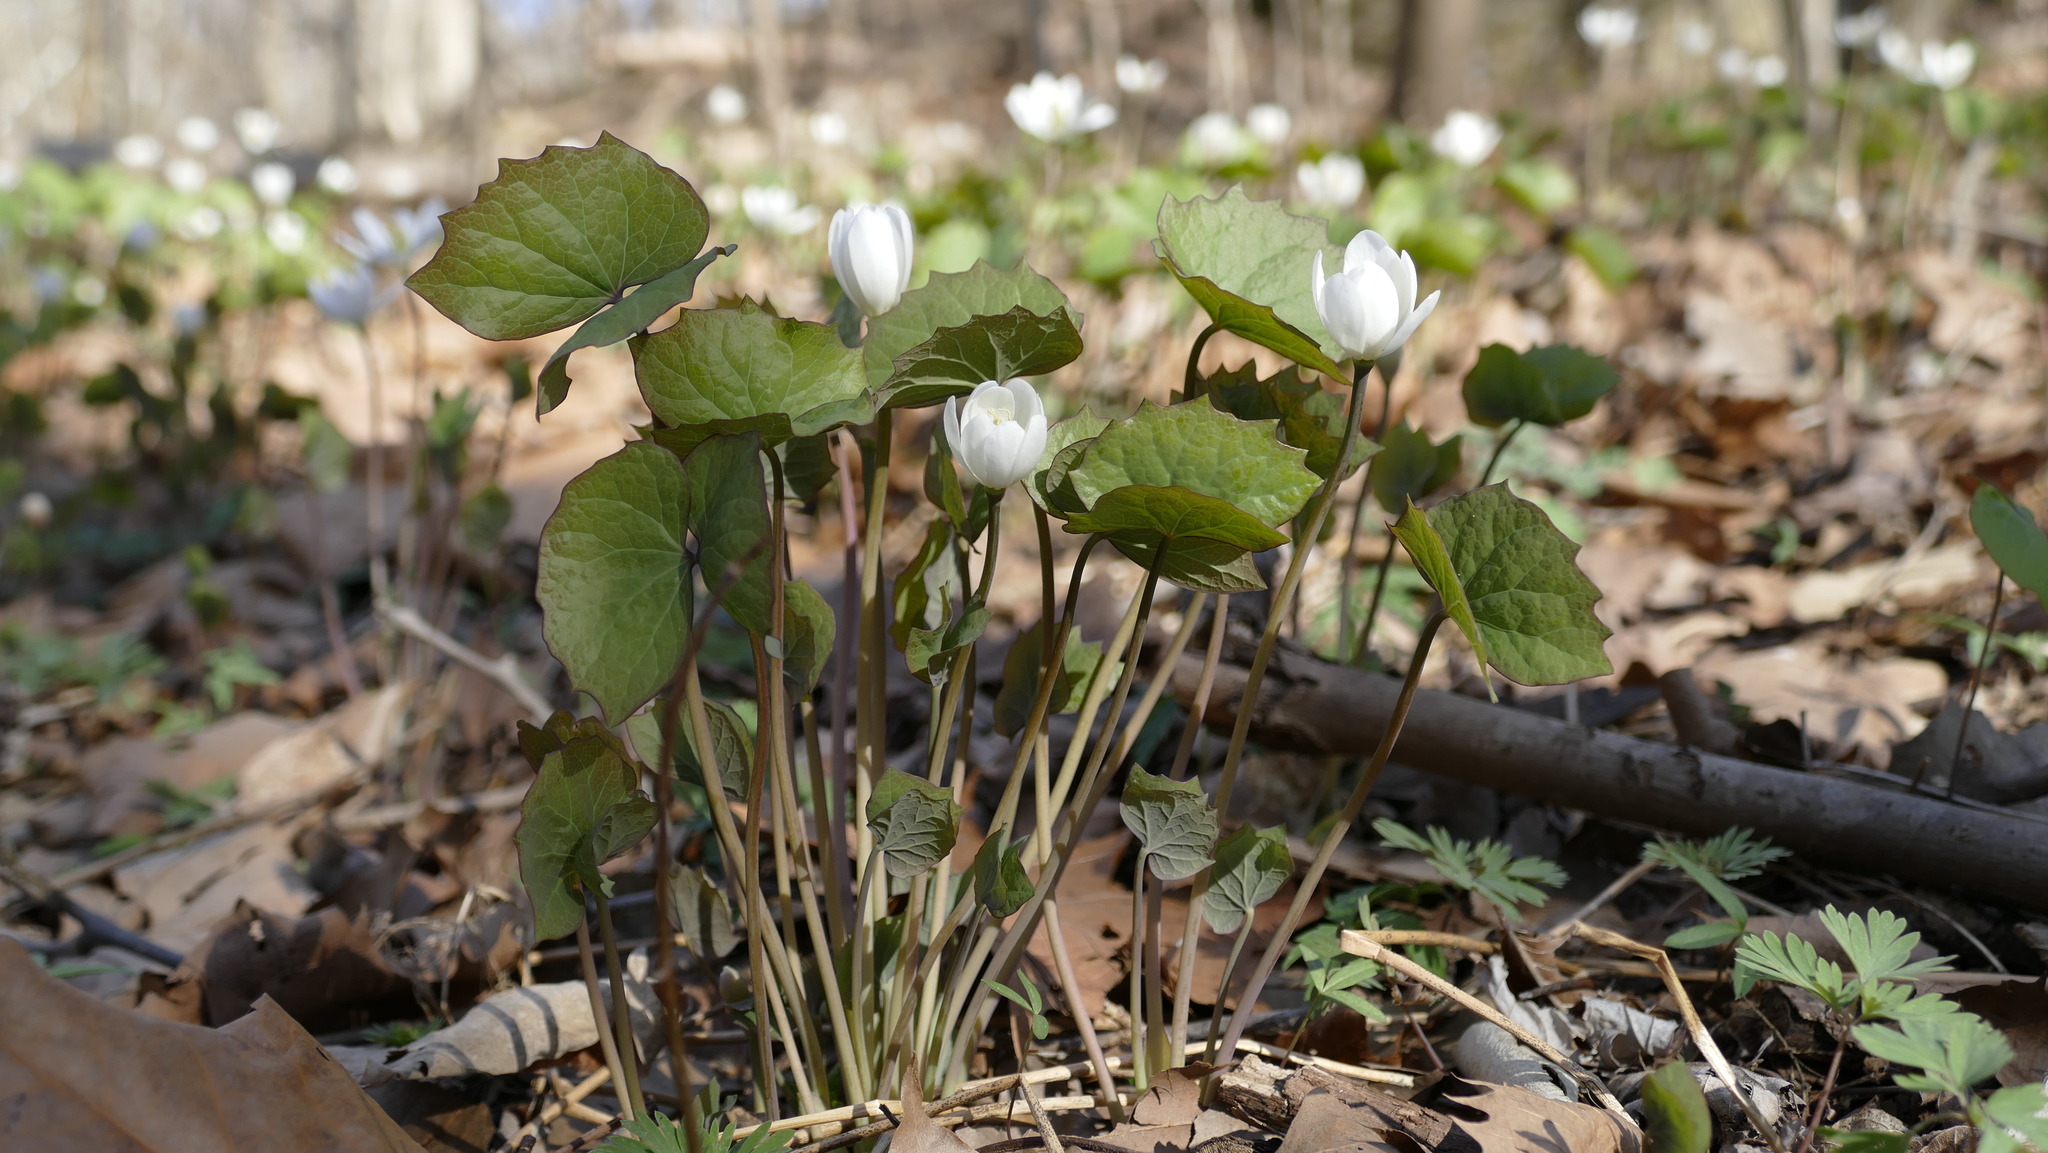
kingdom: Plantae
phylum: Tracheophyta
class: Magnoliopsida
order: Ranunculales
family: Berberidaceae
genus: Jeffersonia
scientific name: Jeffersonia diphylla
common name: Rheumatism-root
